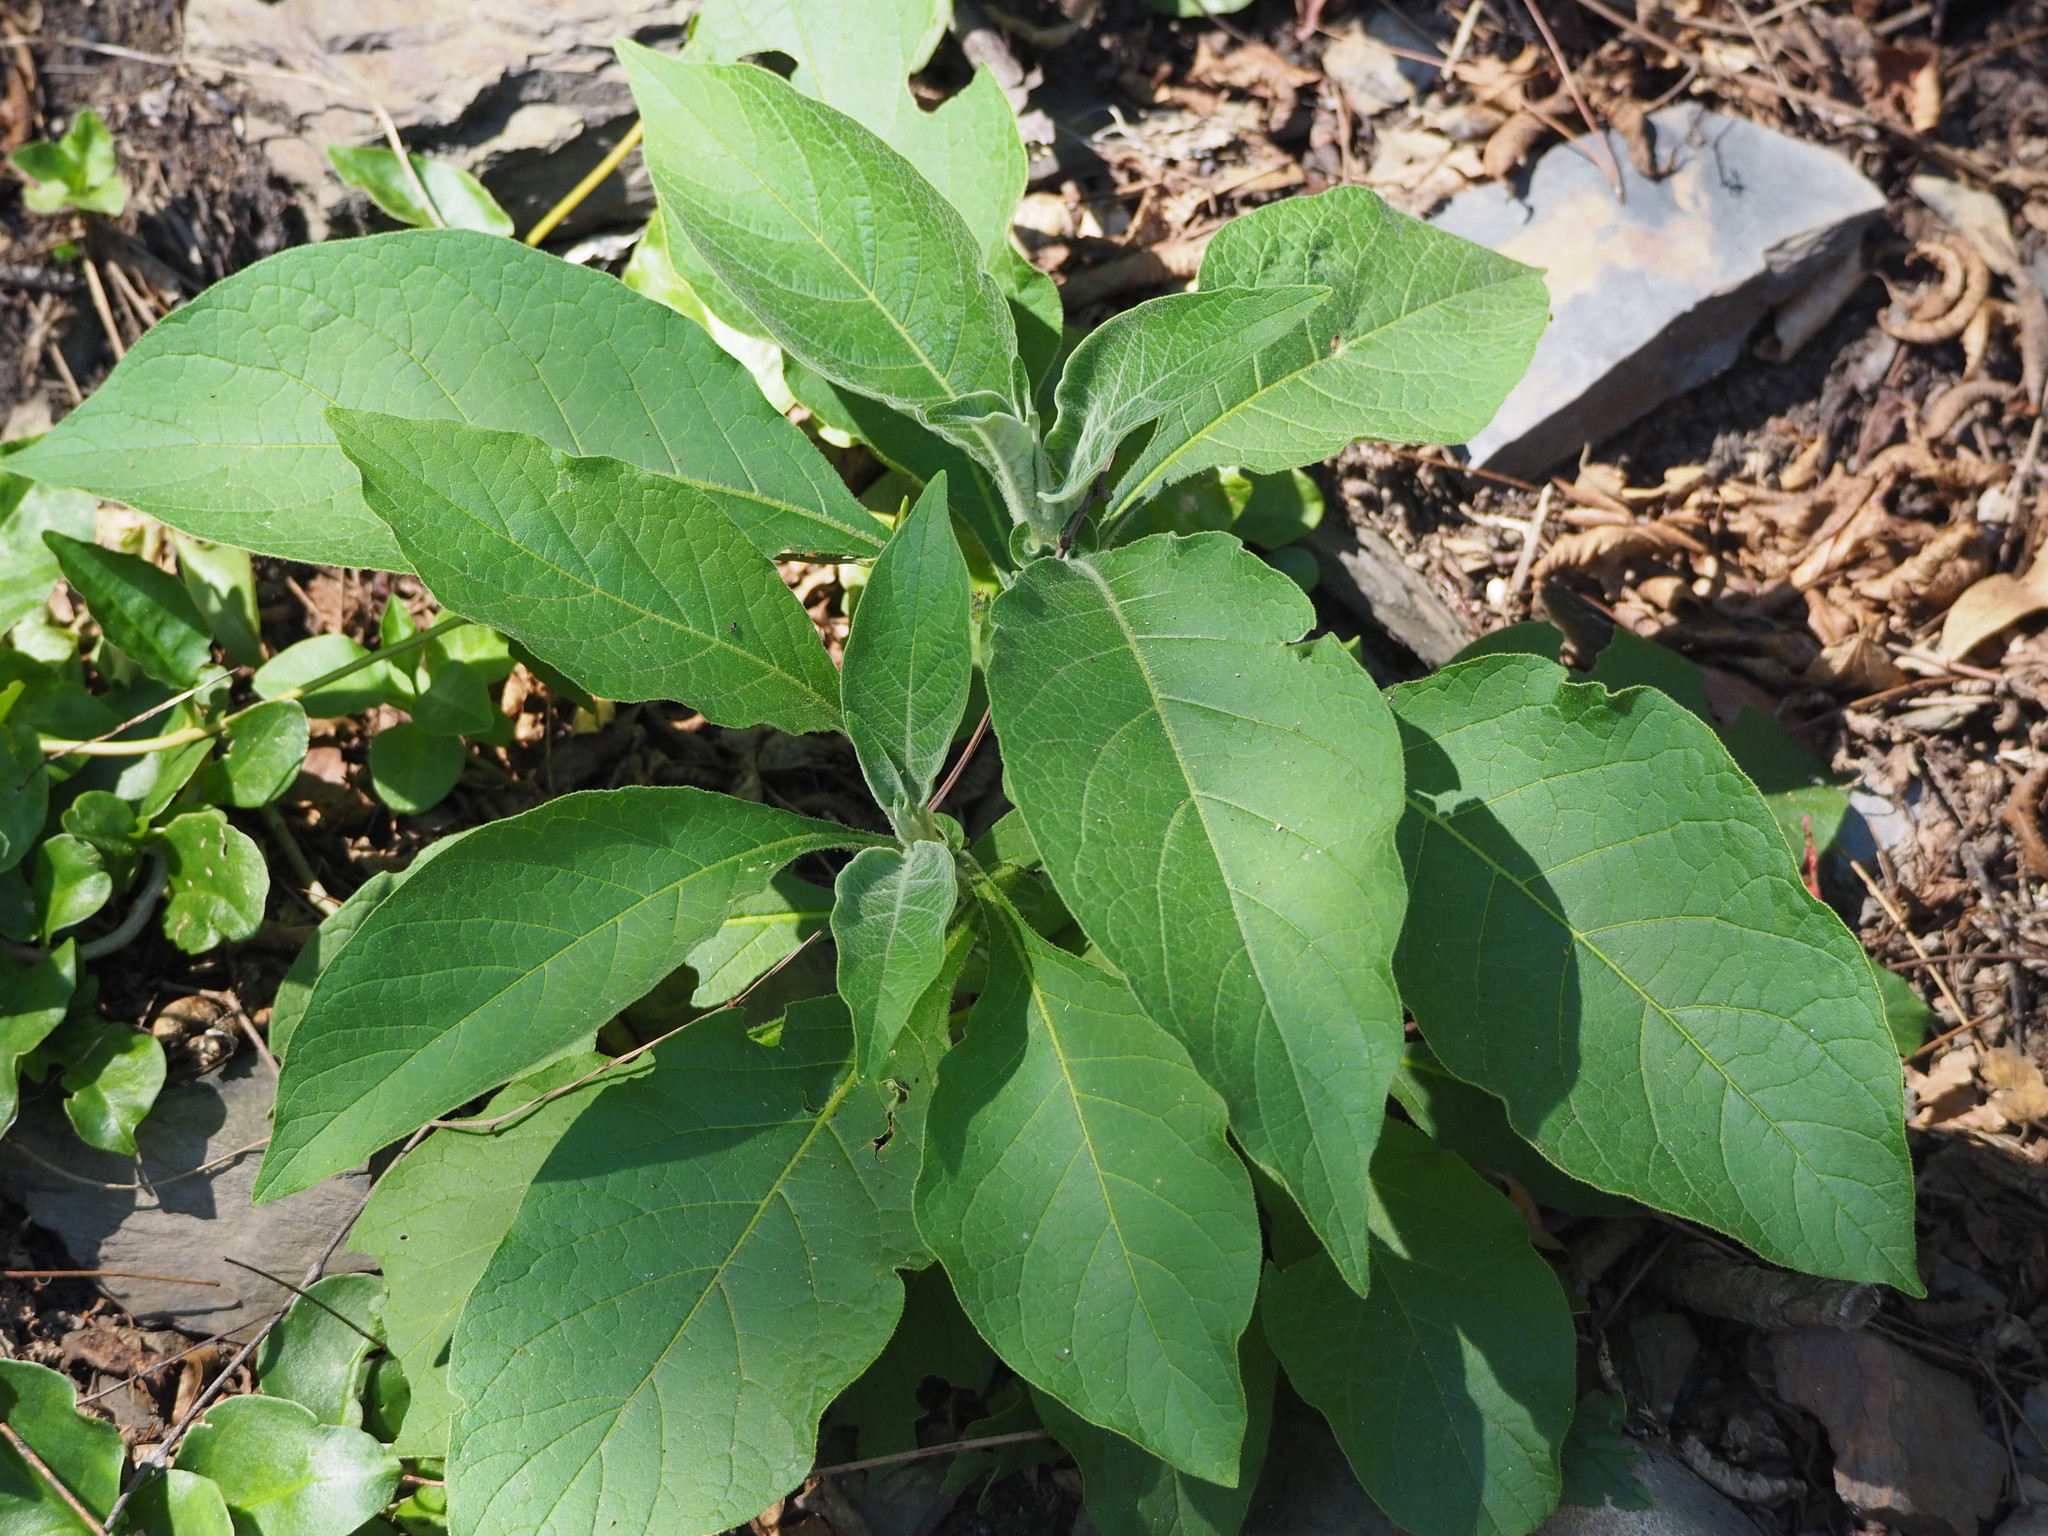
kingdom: Plantae
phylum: Tracheophyta
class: Magnoliopsida
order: Solanales
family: Solanaceae
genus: Solanum
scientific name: Solanum mauritianum
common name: Earleaf nightshade
